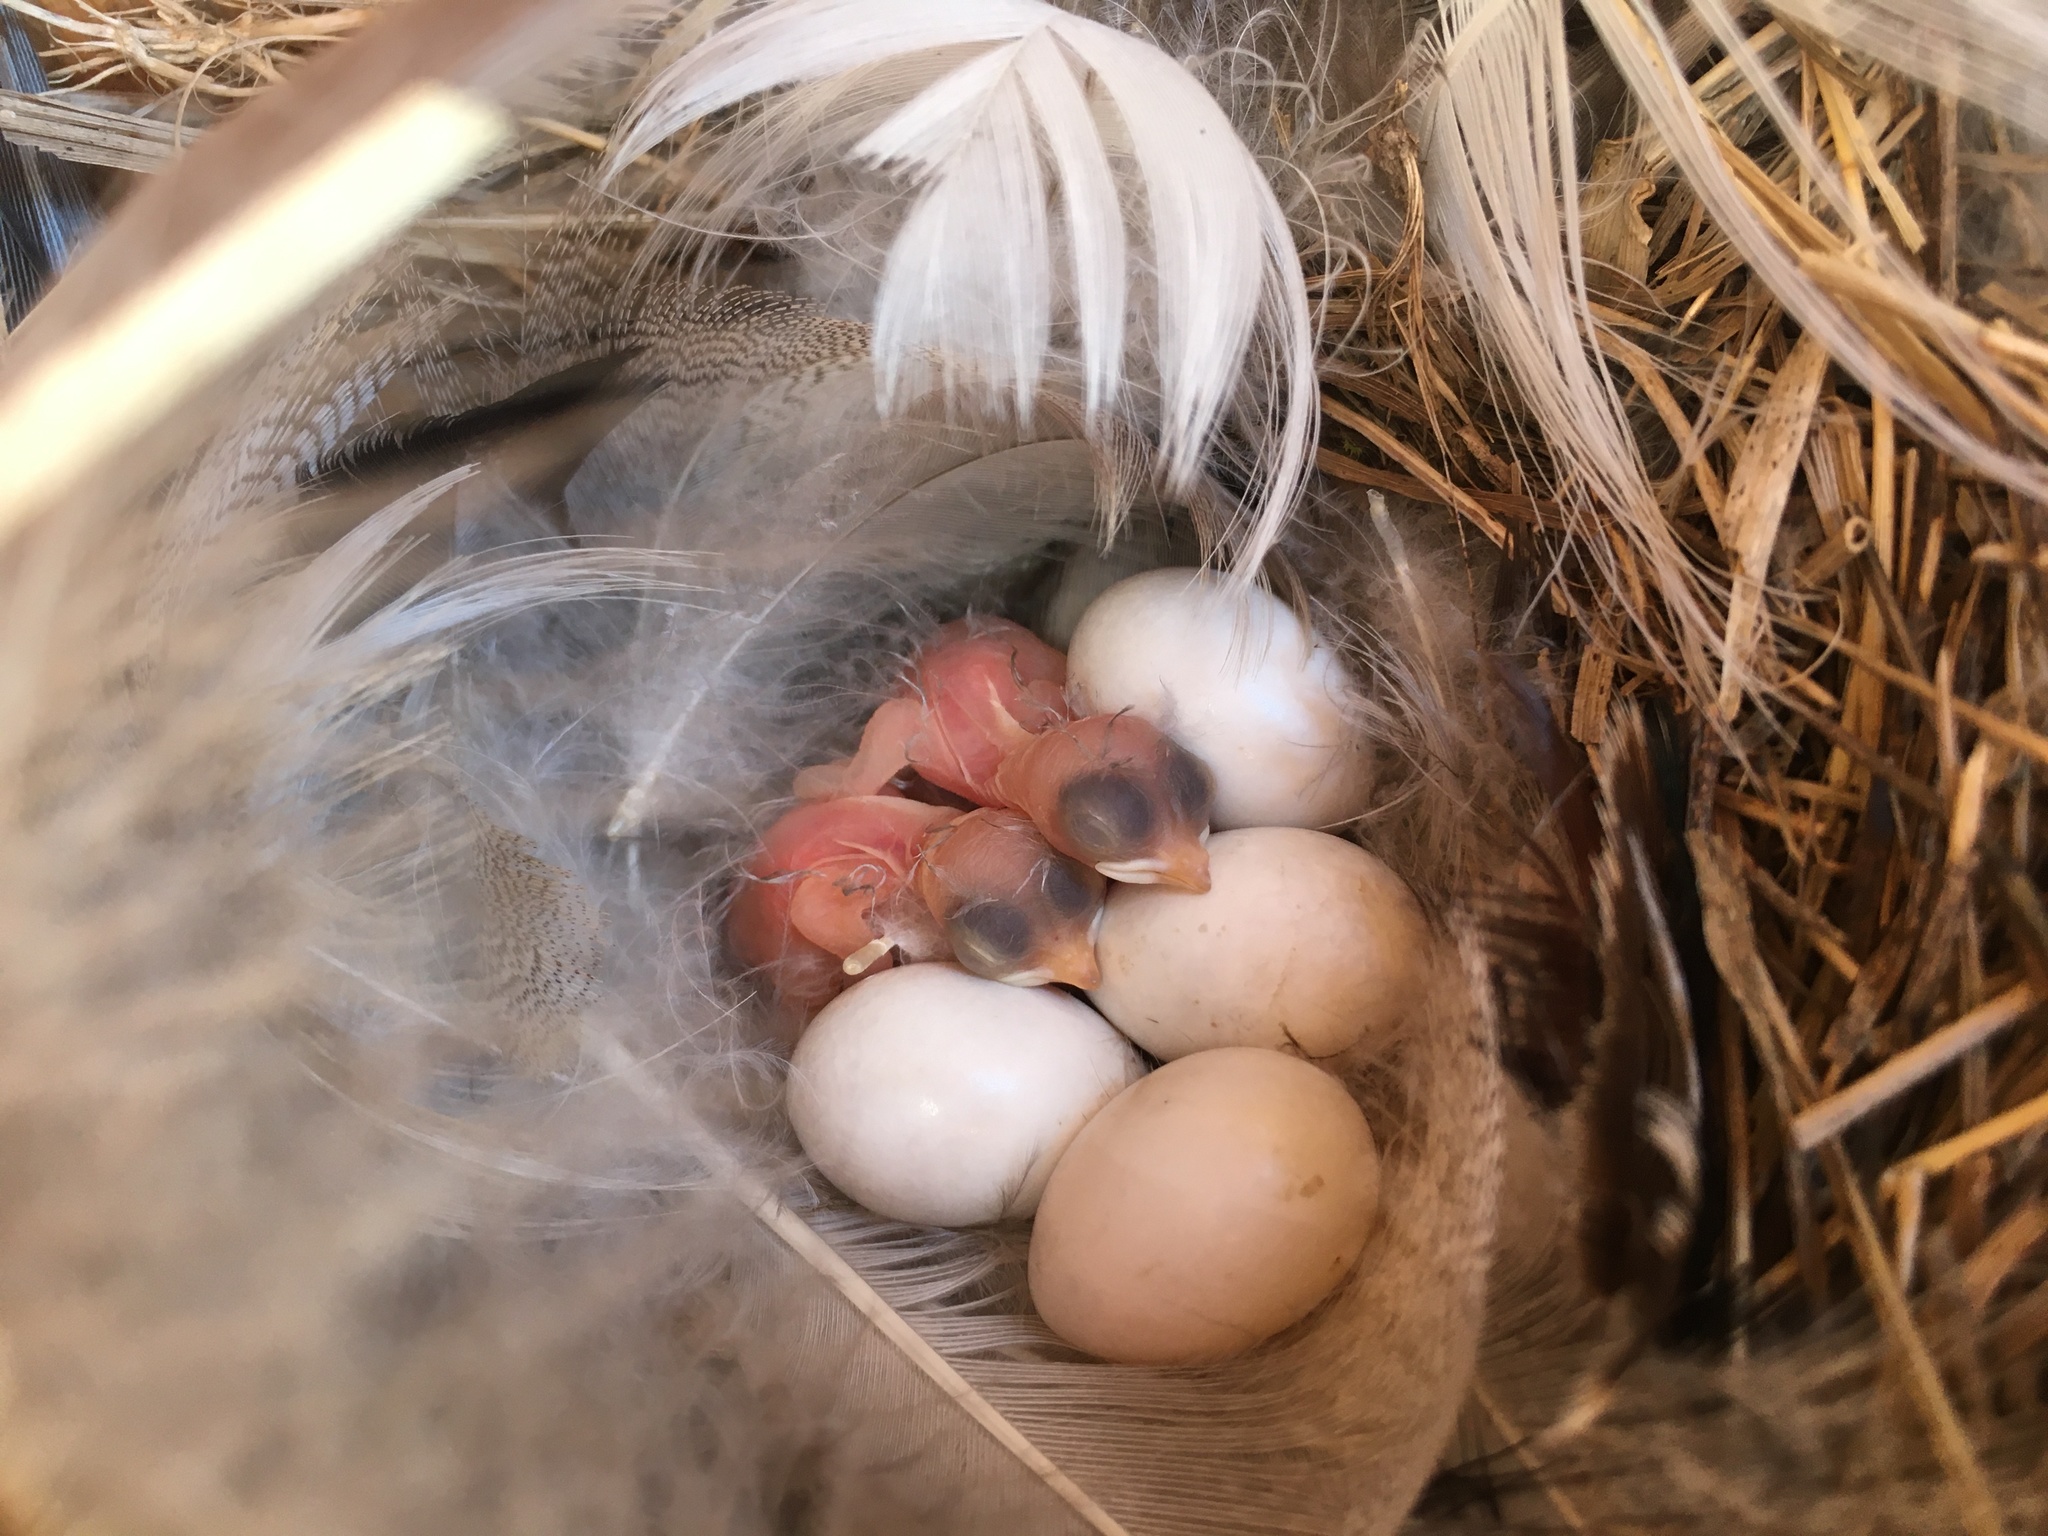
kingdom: Animalia
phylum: Chordata
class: Aves
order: Passeriformes
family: Hirundinidae
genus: Tachycineta
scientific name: Tachycineta bicolor
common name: Tree swallow
